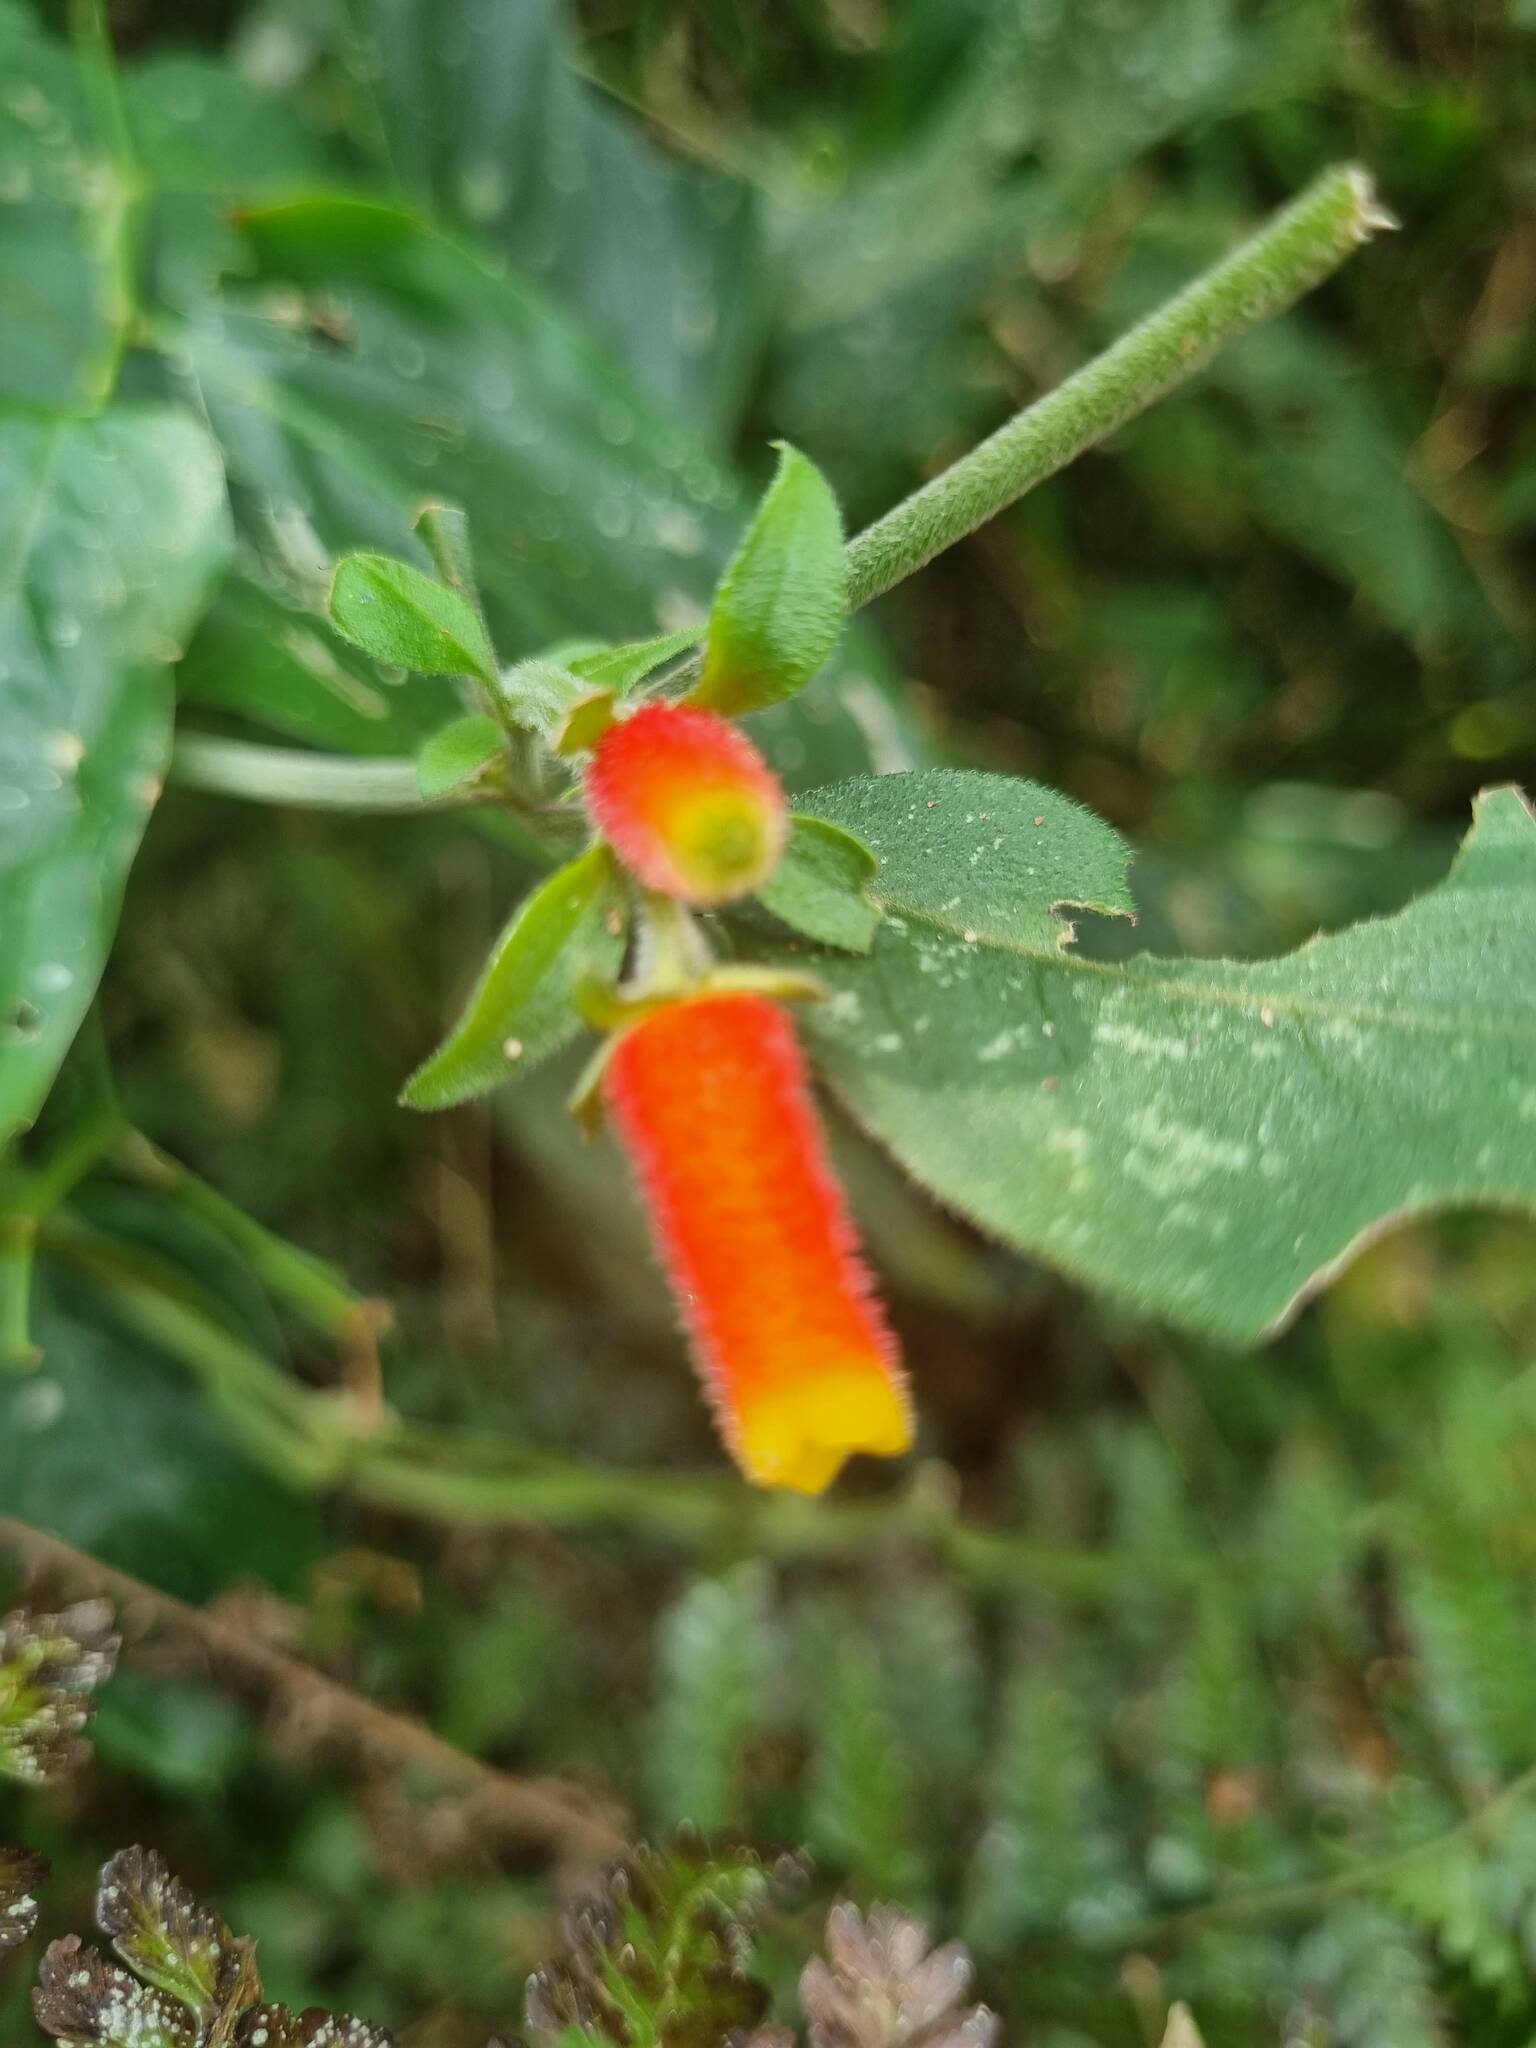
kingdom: Plantae
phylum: Tracheophyta
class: Magnoliopsida
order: Gentianales
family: Rubiaceae
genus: Manettia
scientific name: Manettia paraguariensis
